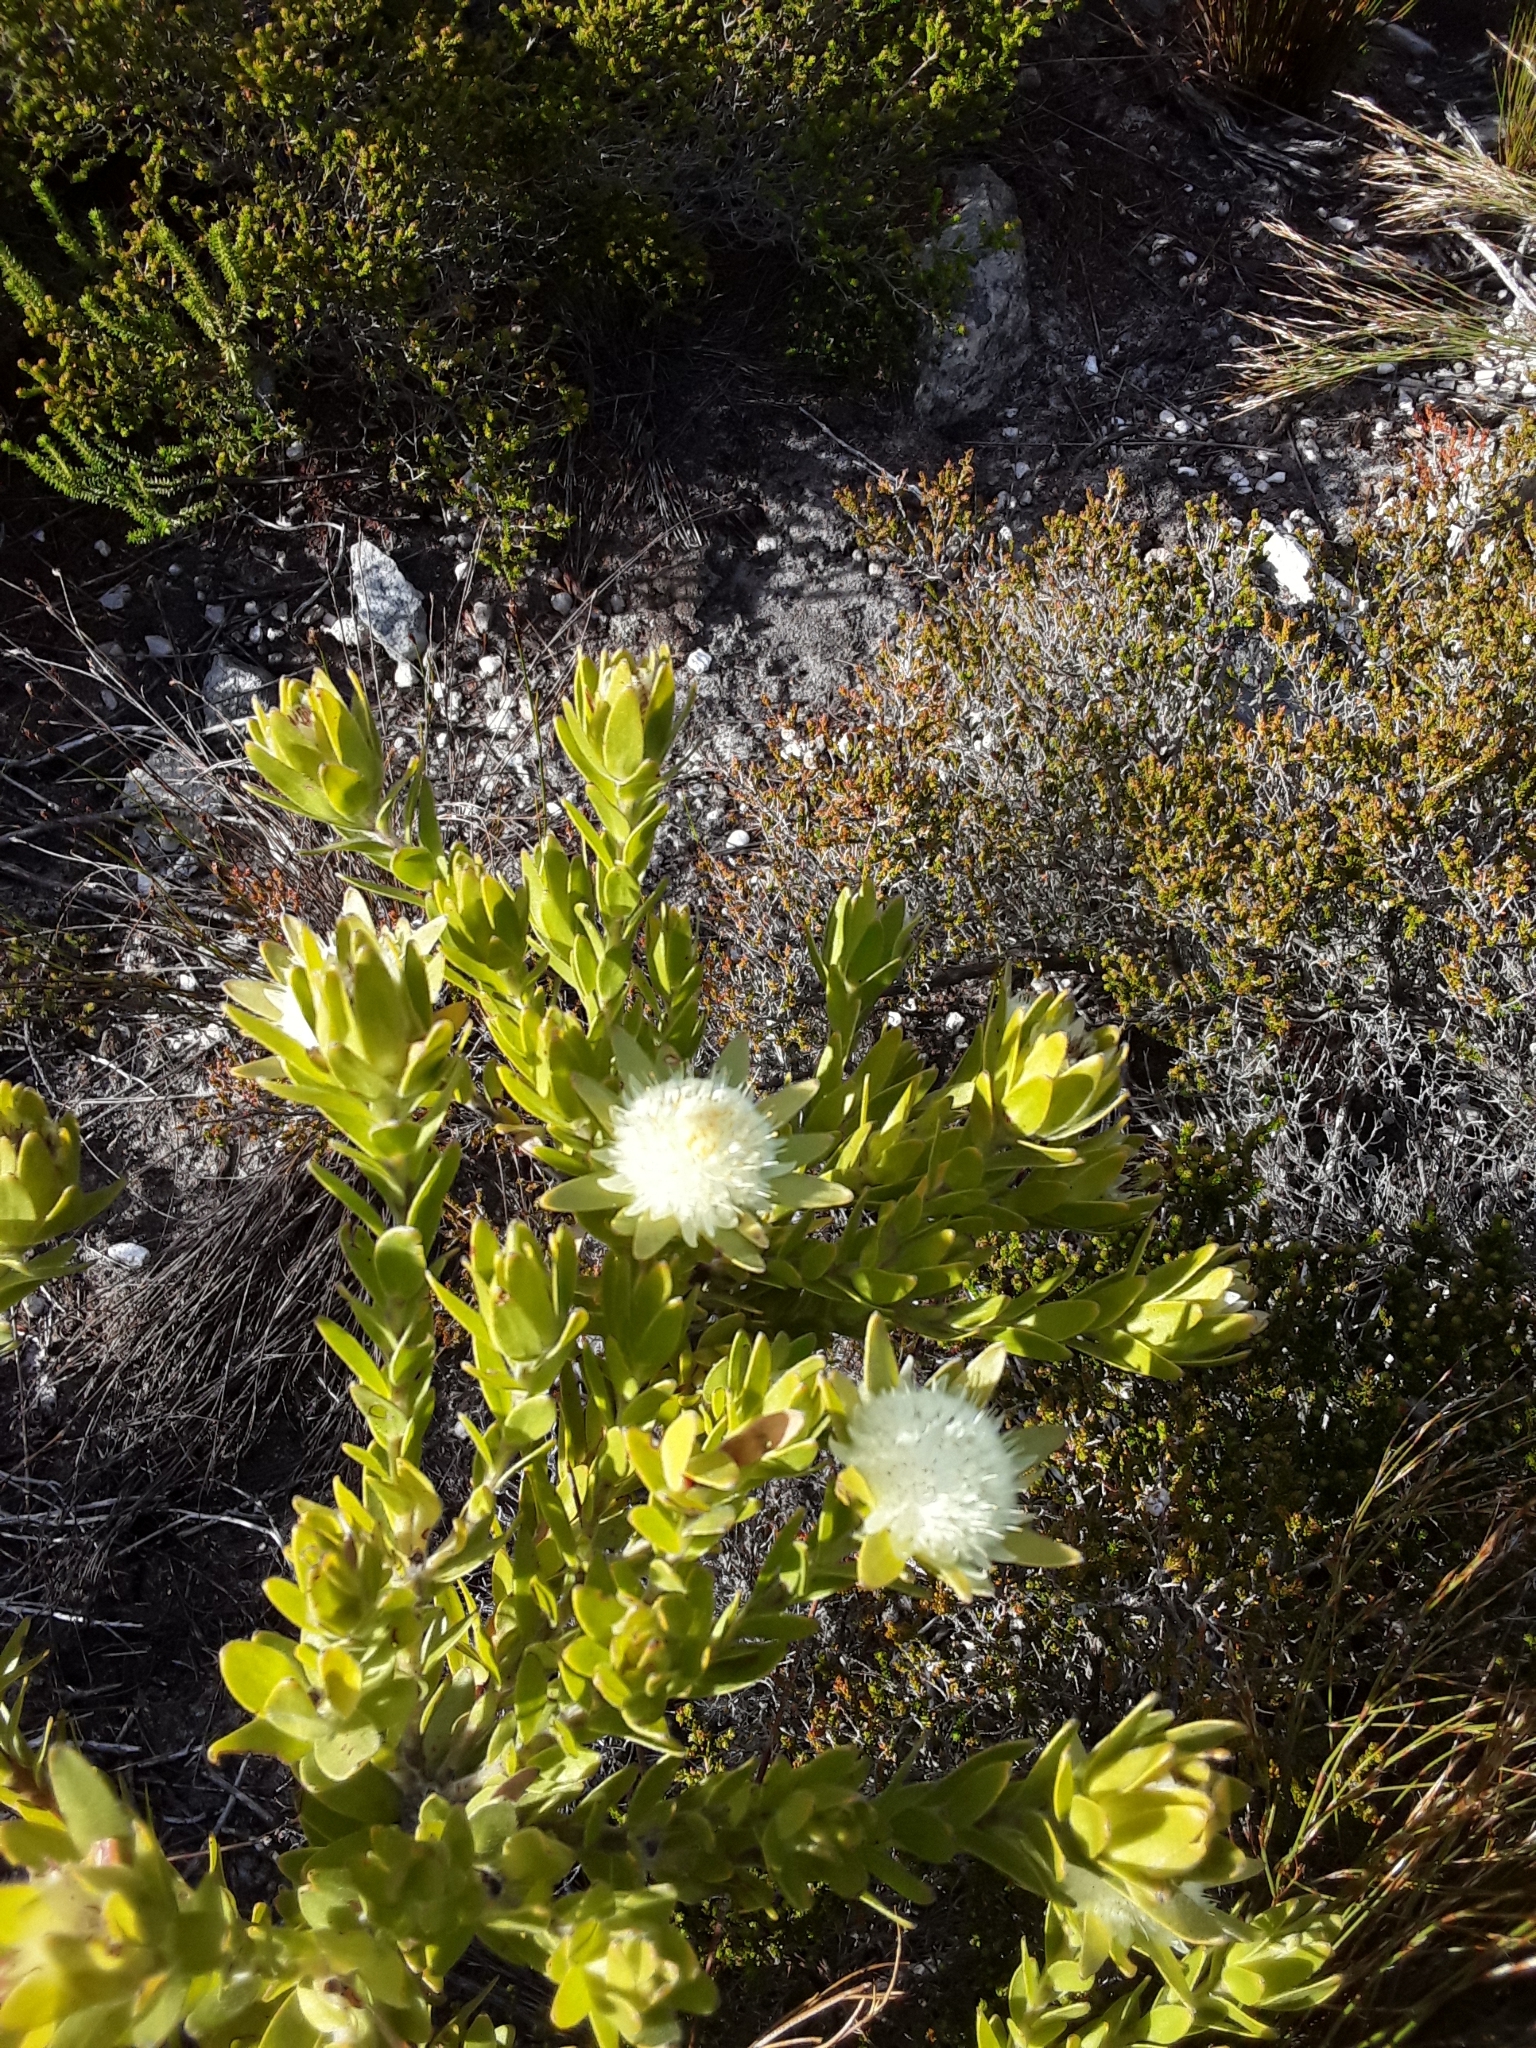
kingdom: Plantae
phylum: Tracheophyta
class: Magnoliopsida
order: Proteales
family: Proteaceae
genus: Diastella
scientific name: Diastella thymelaeoides
